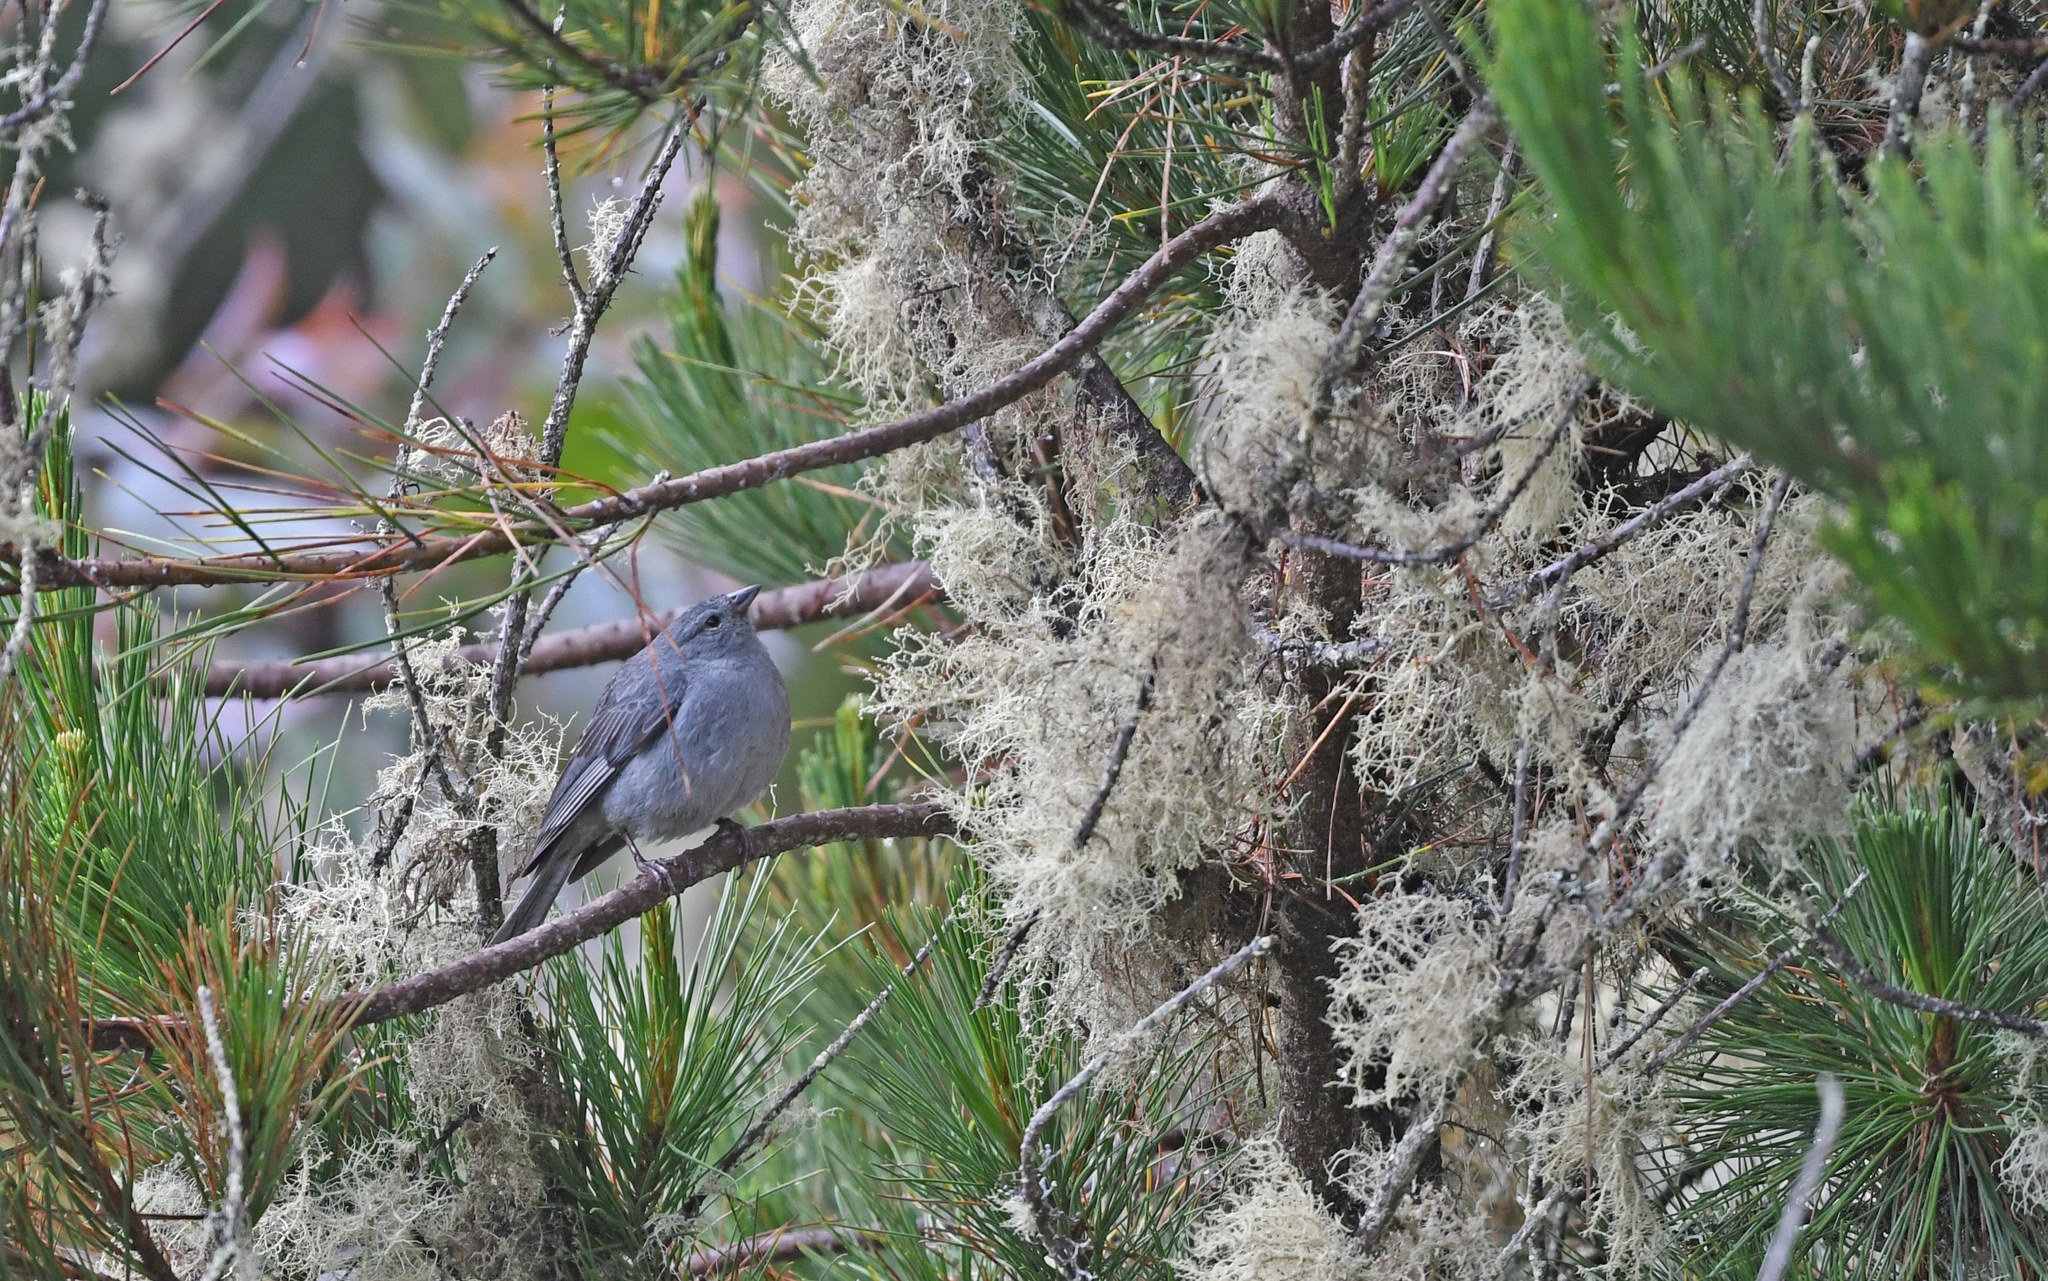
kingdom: Animalia
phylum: Chordata
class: Aves
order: Passeriformes
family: Thraupidae
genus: Geospizopsis
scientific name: Geospizopsis unicolor
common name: Plumbeous sierra-finch
